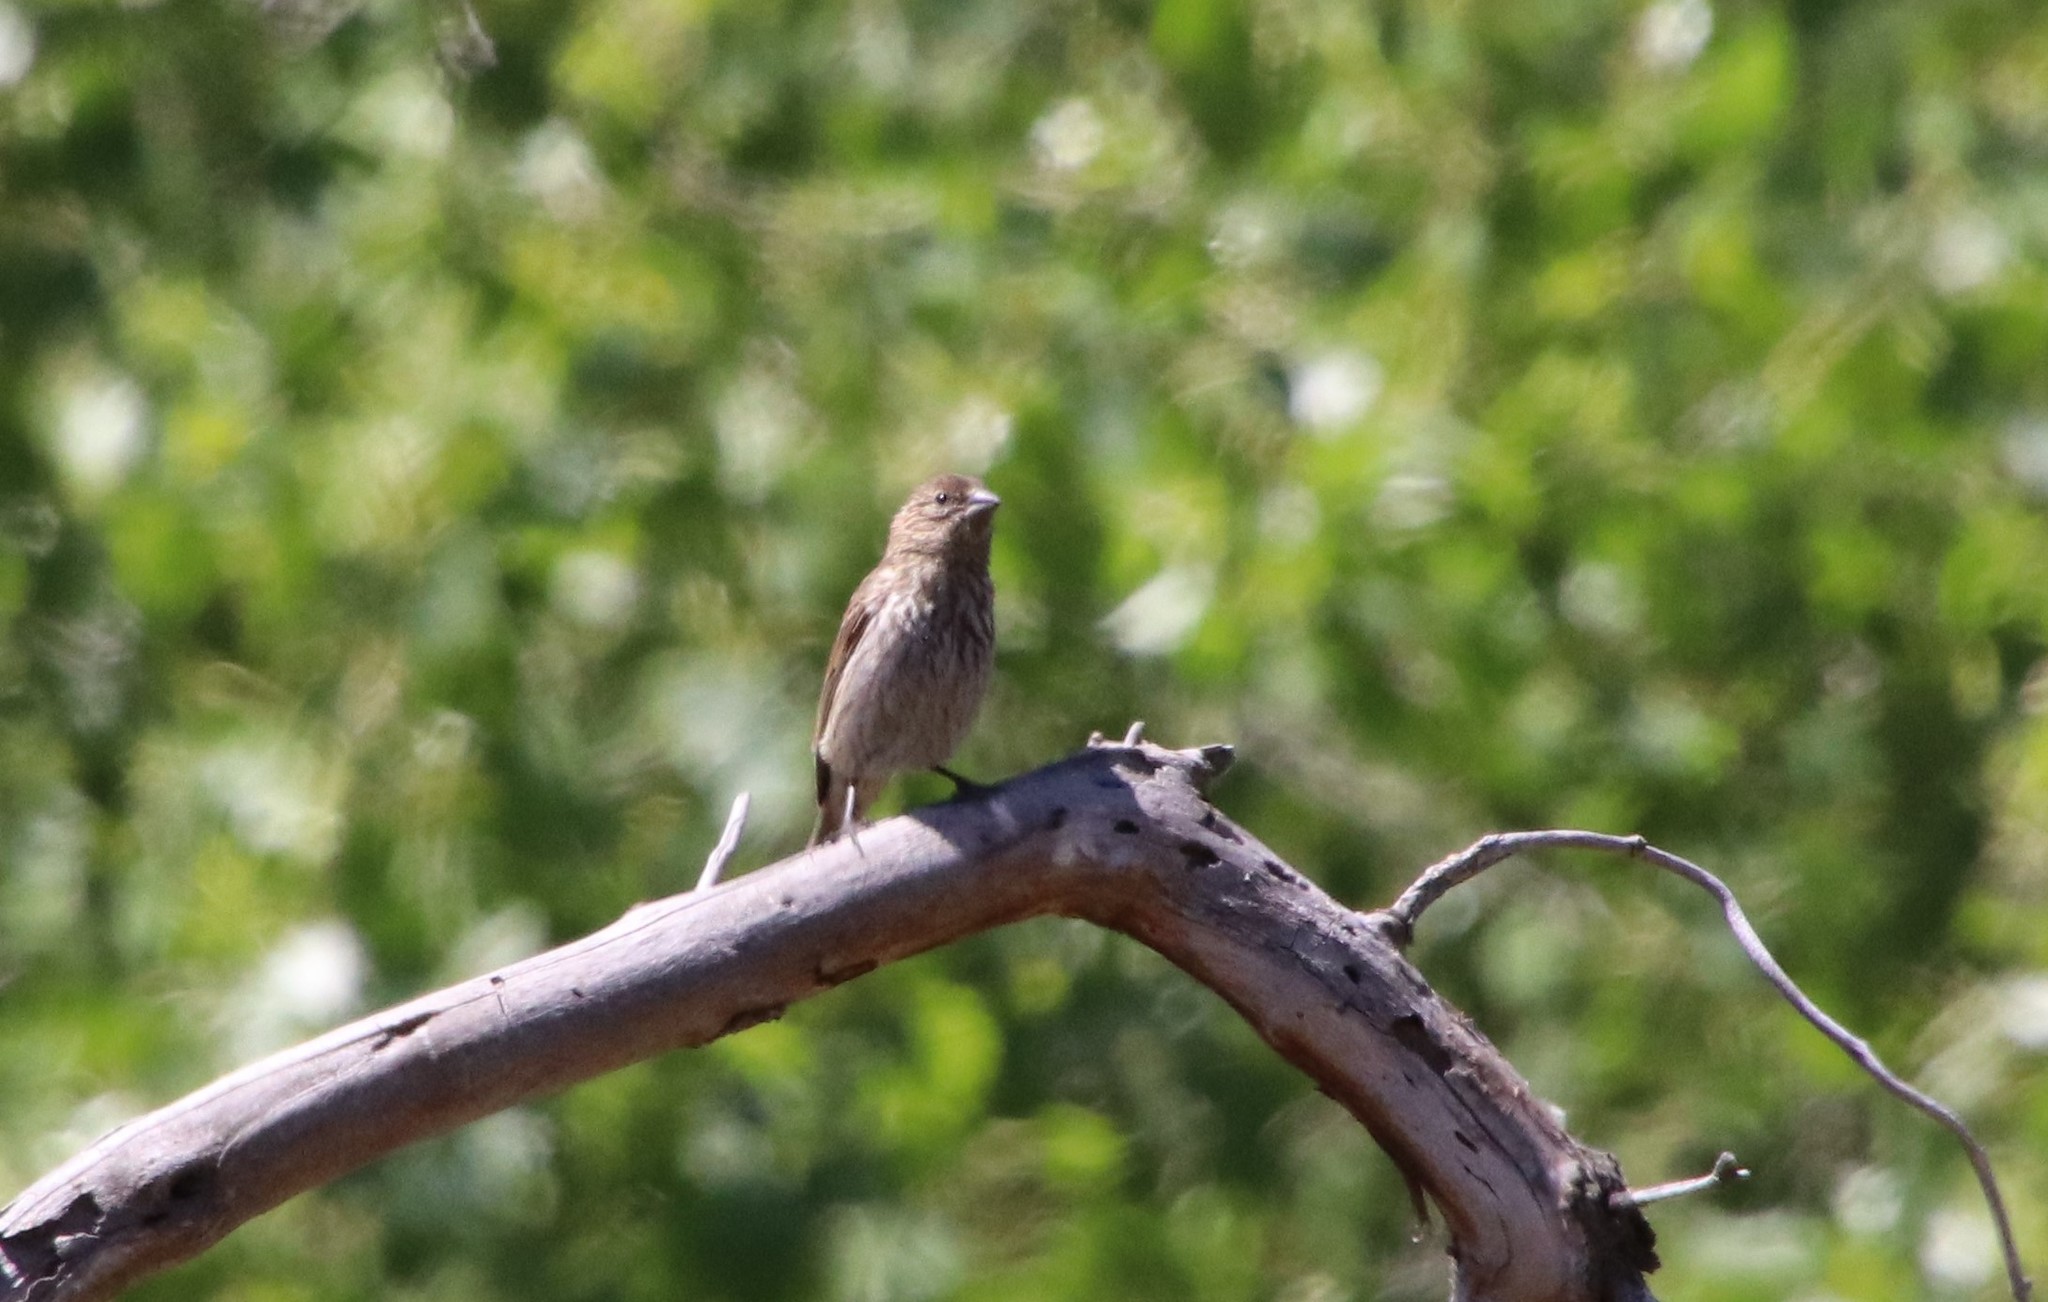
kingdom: Animalia
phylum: Chordata
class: Aves
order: Passeriformes
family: Fringillidae
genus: Haemorhous
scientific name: Haemorhous mexicanus
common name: House finch
